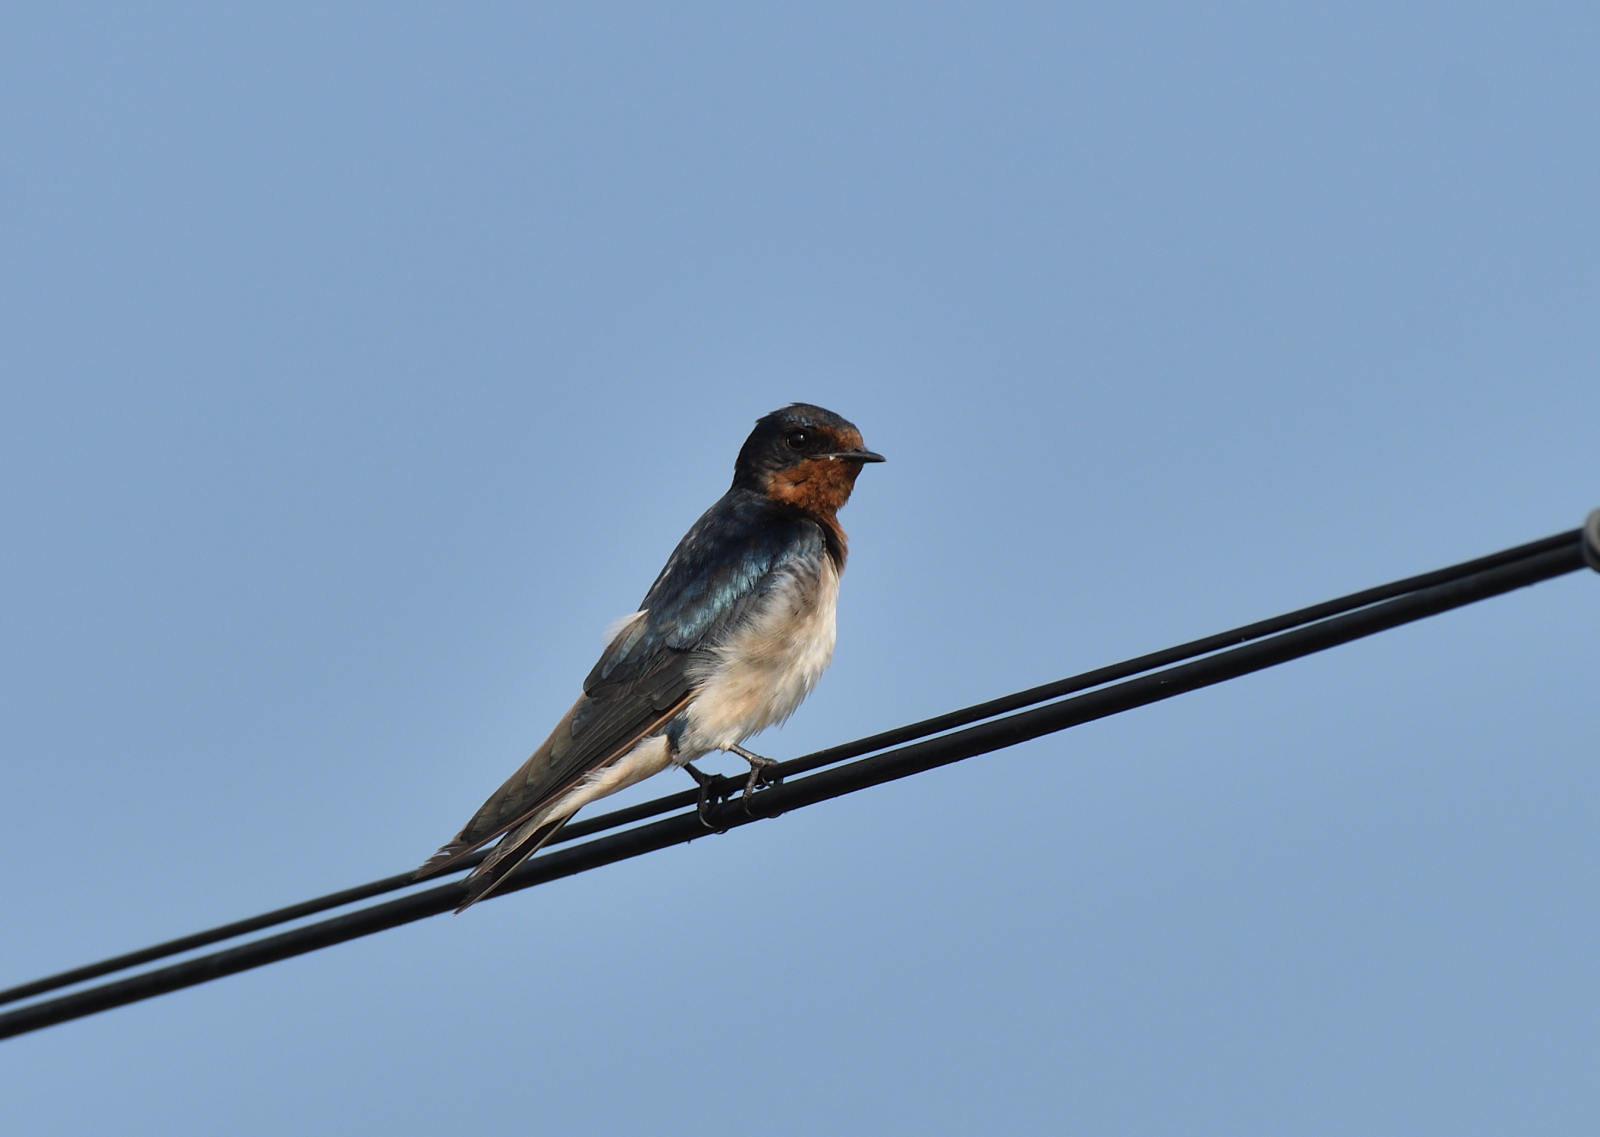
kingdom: Animalia
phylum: Chordata
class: Aves
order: Passeriformes
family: Hirundinidae
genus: Hirundo
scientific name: Hirundo rustica
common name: Barn swallow
